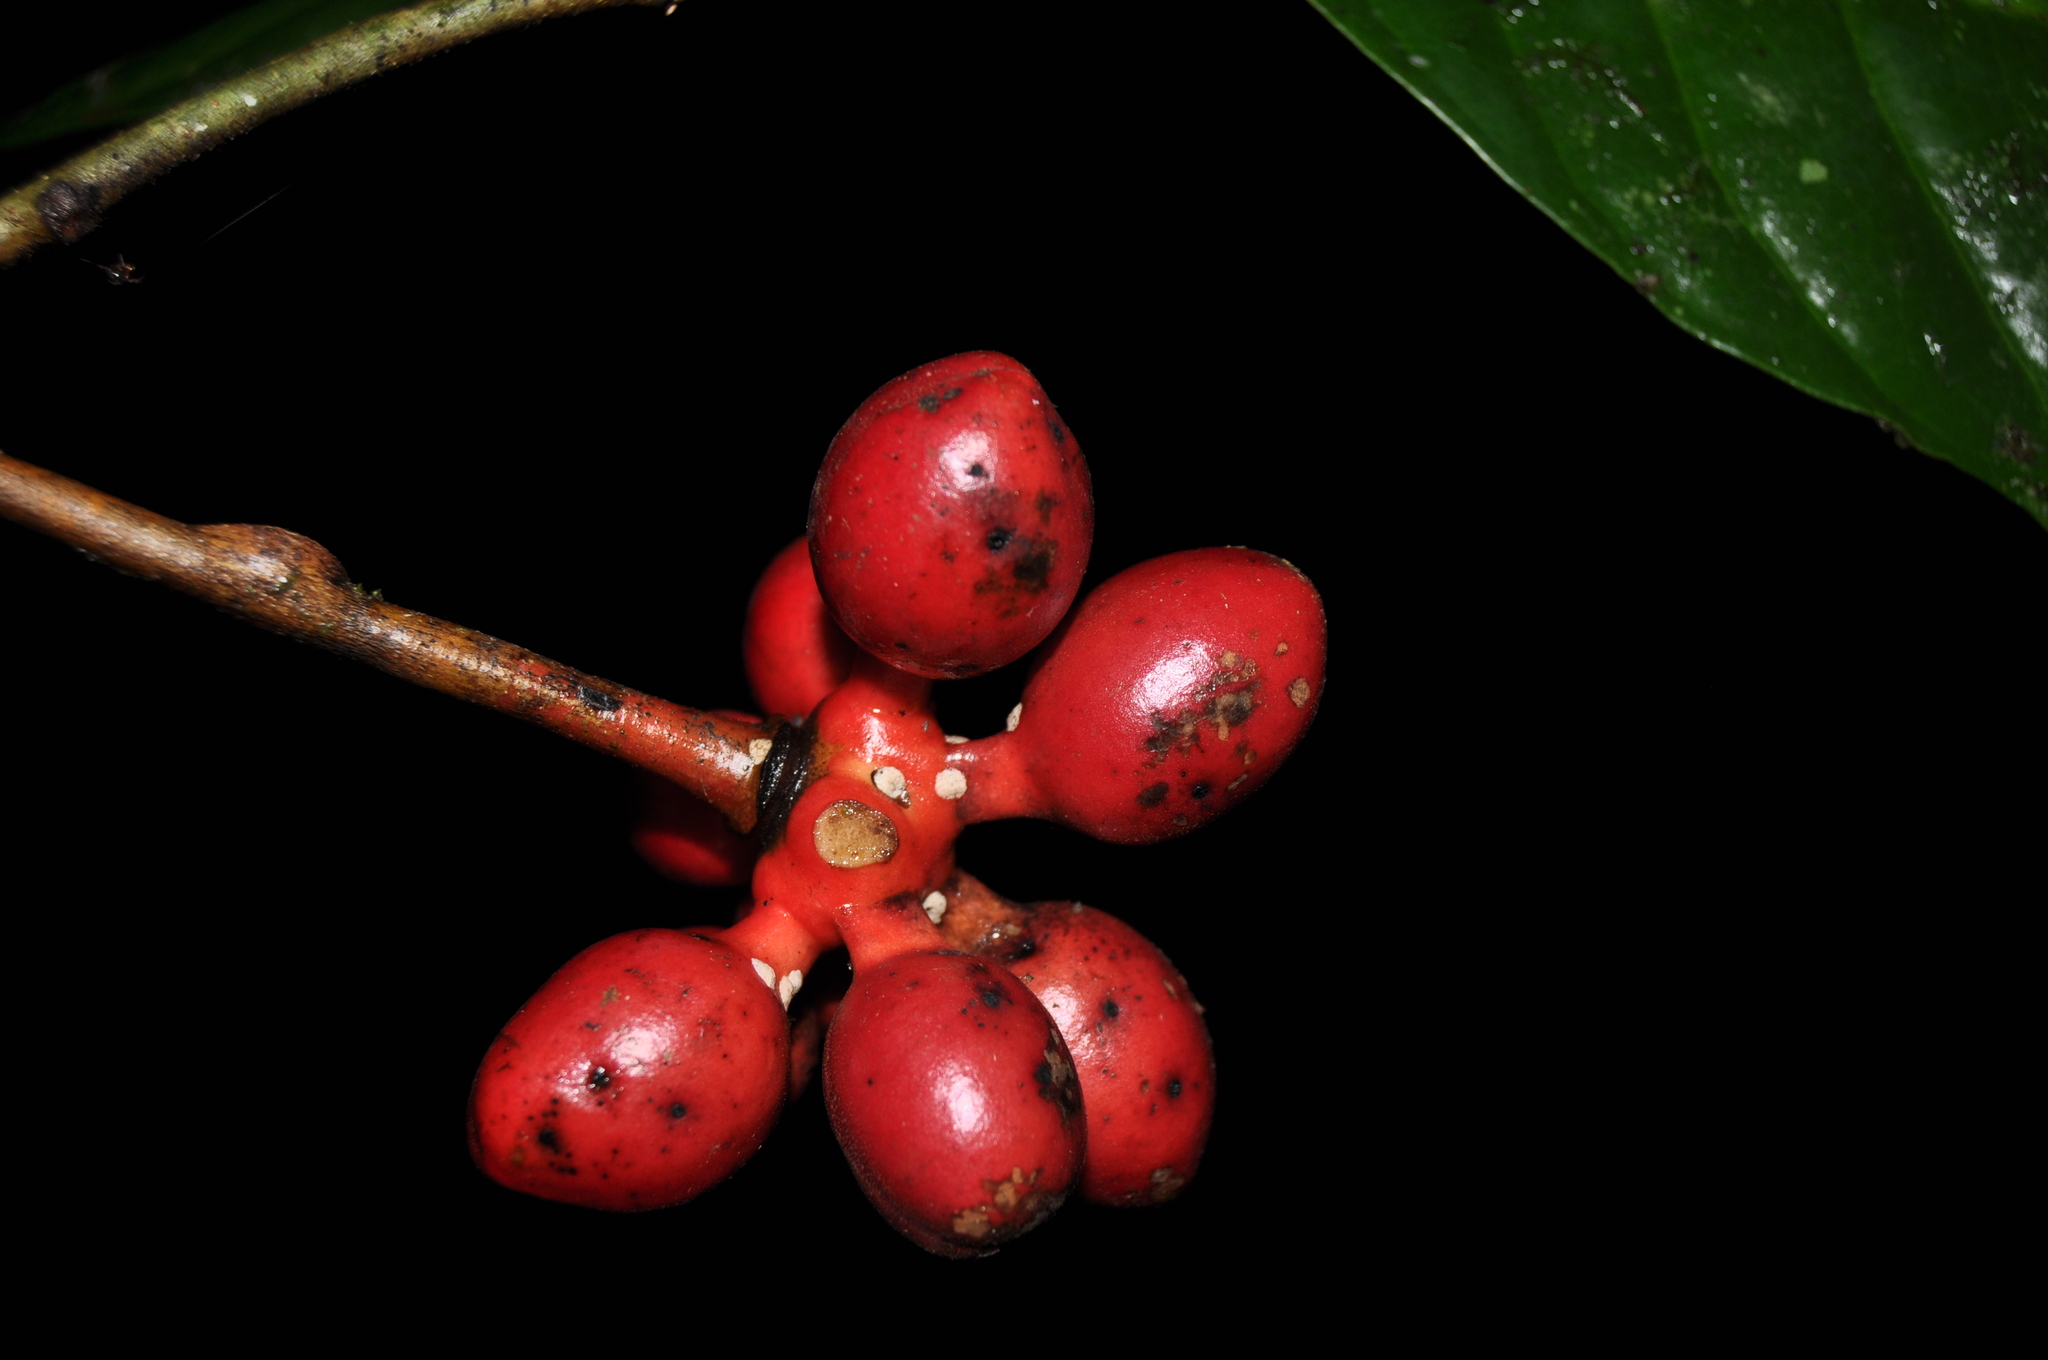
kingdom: Plantae
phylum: Tracheophyta
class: Magnoliopsida
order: Magnoliales
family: Annonaceae
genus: Desmopsis
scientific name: Desmopsis heteropetala
